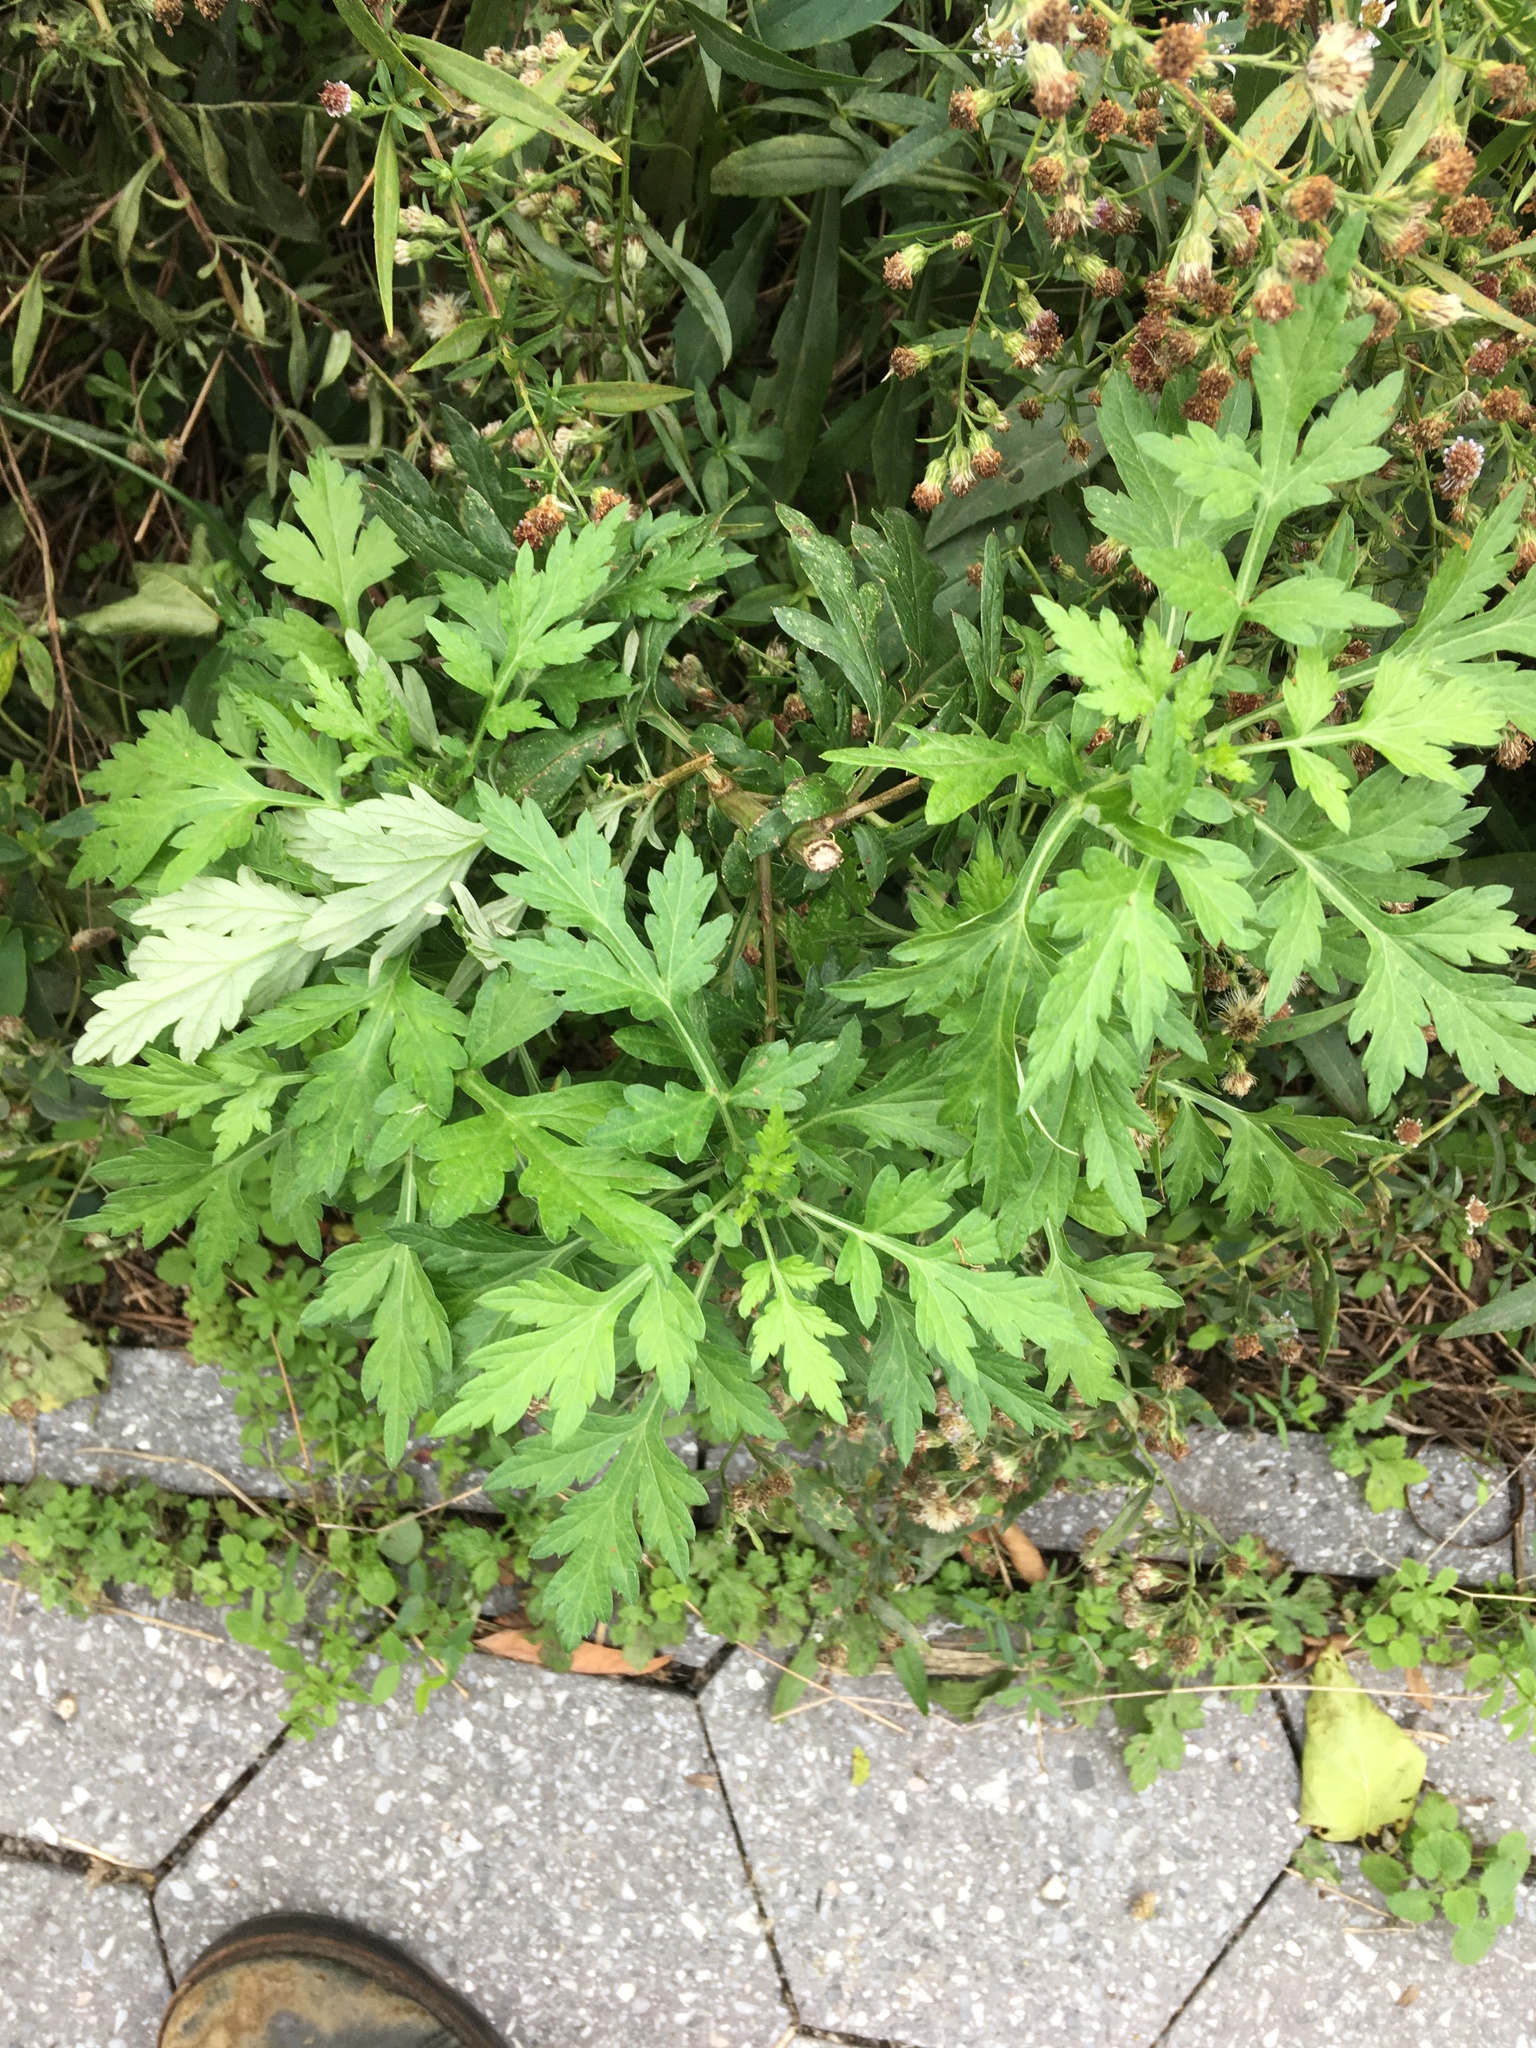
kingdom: Plantae
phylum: Tracheophyta
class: Magnoliopsida
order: Asterales
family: Asteraceae
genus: Artemisia
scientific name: Artemisia vulgaris
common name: Mugwort
